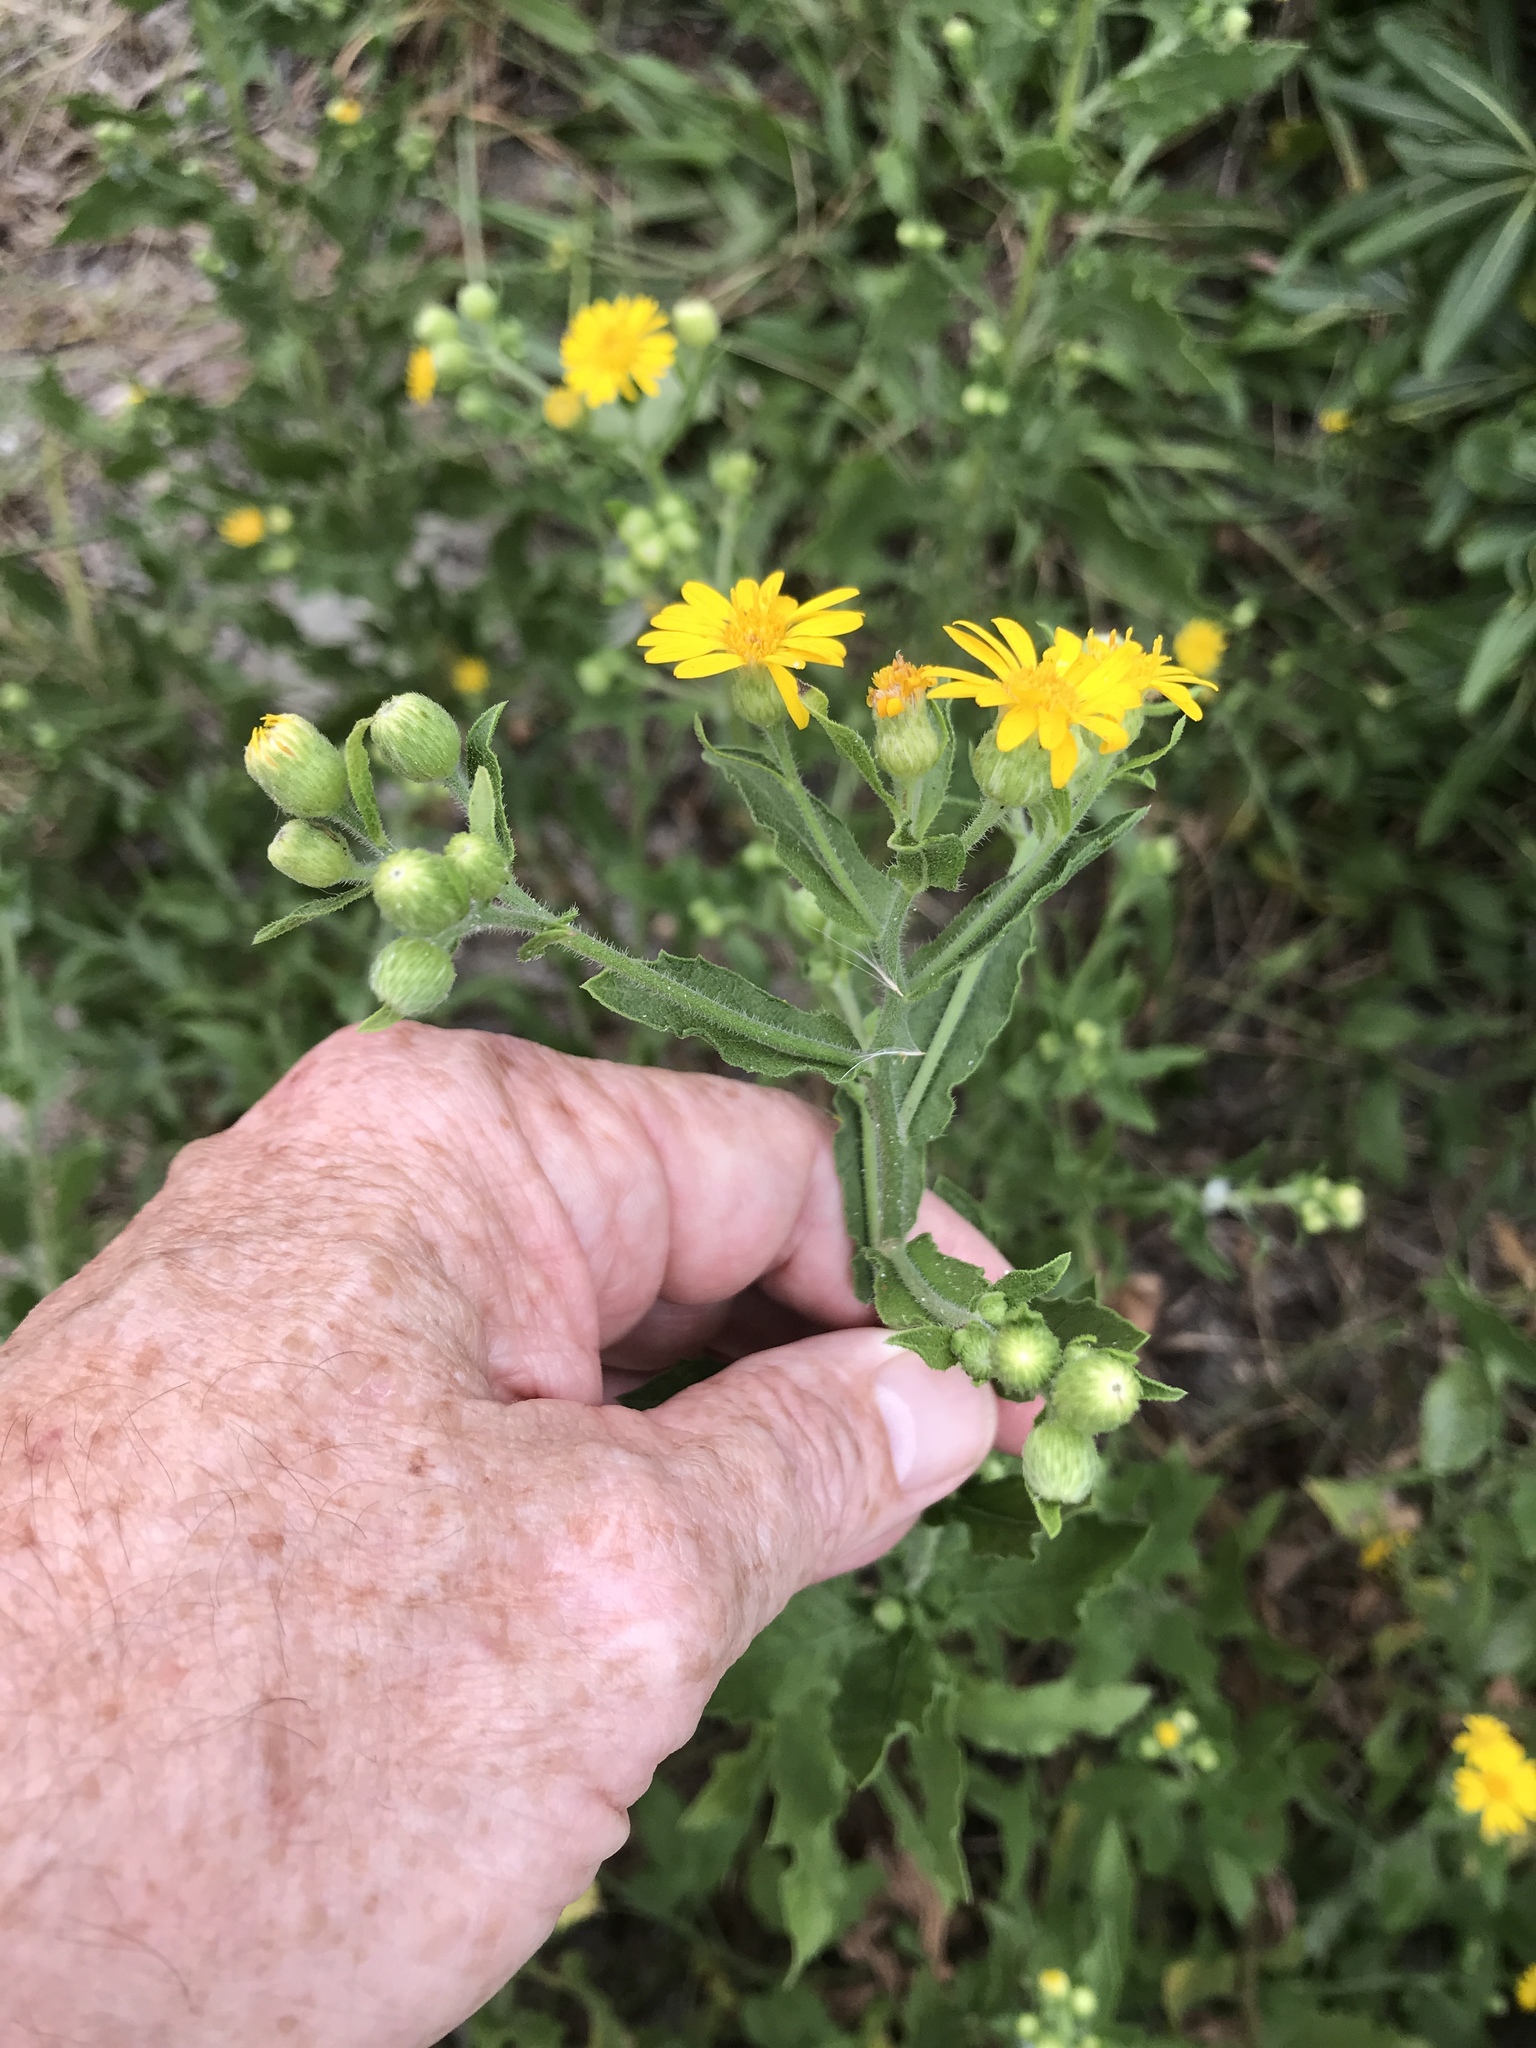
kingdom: Plantae
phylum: Tracheophyta
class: Magnoliopsida
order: Asterales
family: Asteraceae
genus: Heterotheca
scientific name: Heterotheca subaxillaris
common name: Camphorweed
